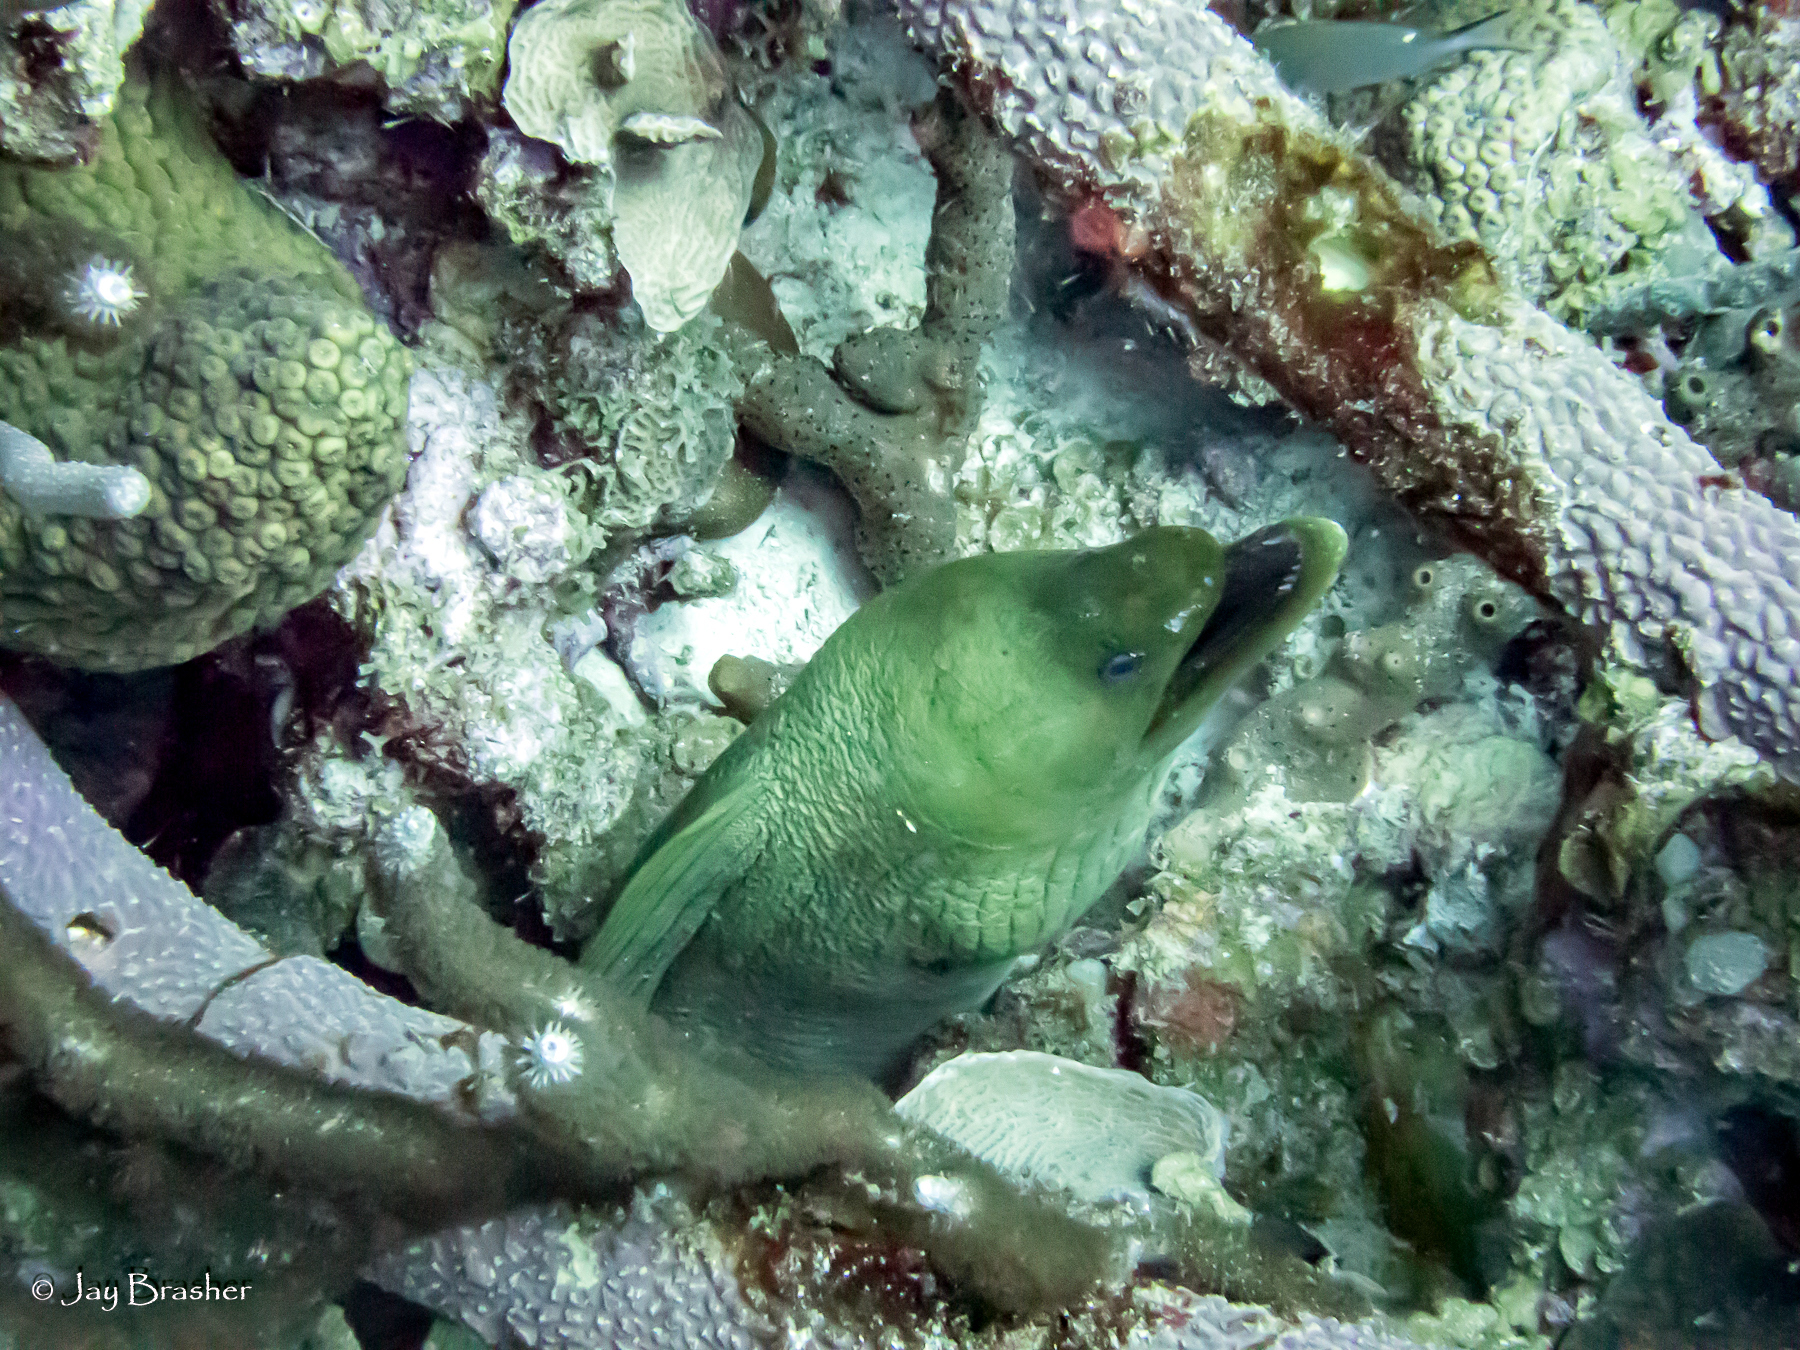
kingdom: Animalia
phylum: Chordata
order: Anguilliformes
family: Muraenidae
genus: Gymnothorax
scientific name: Gymnothorax funebris
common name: Green moray
